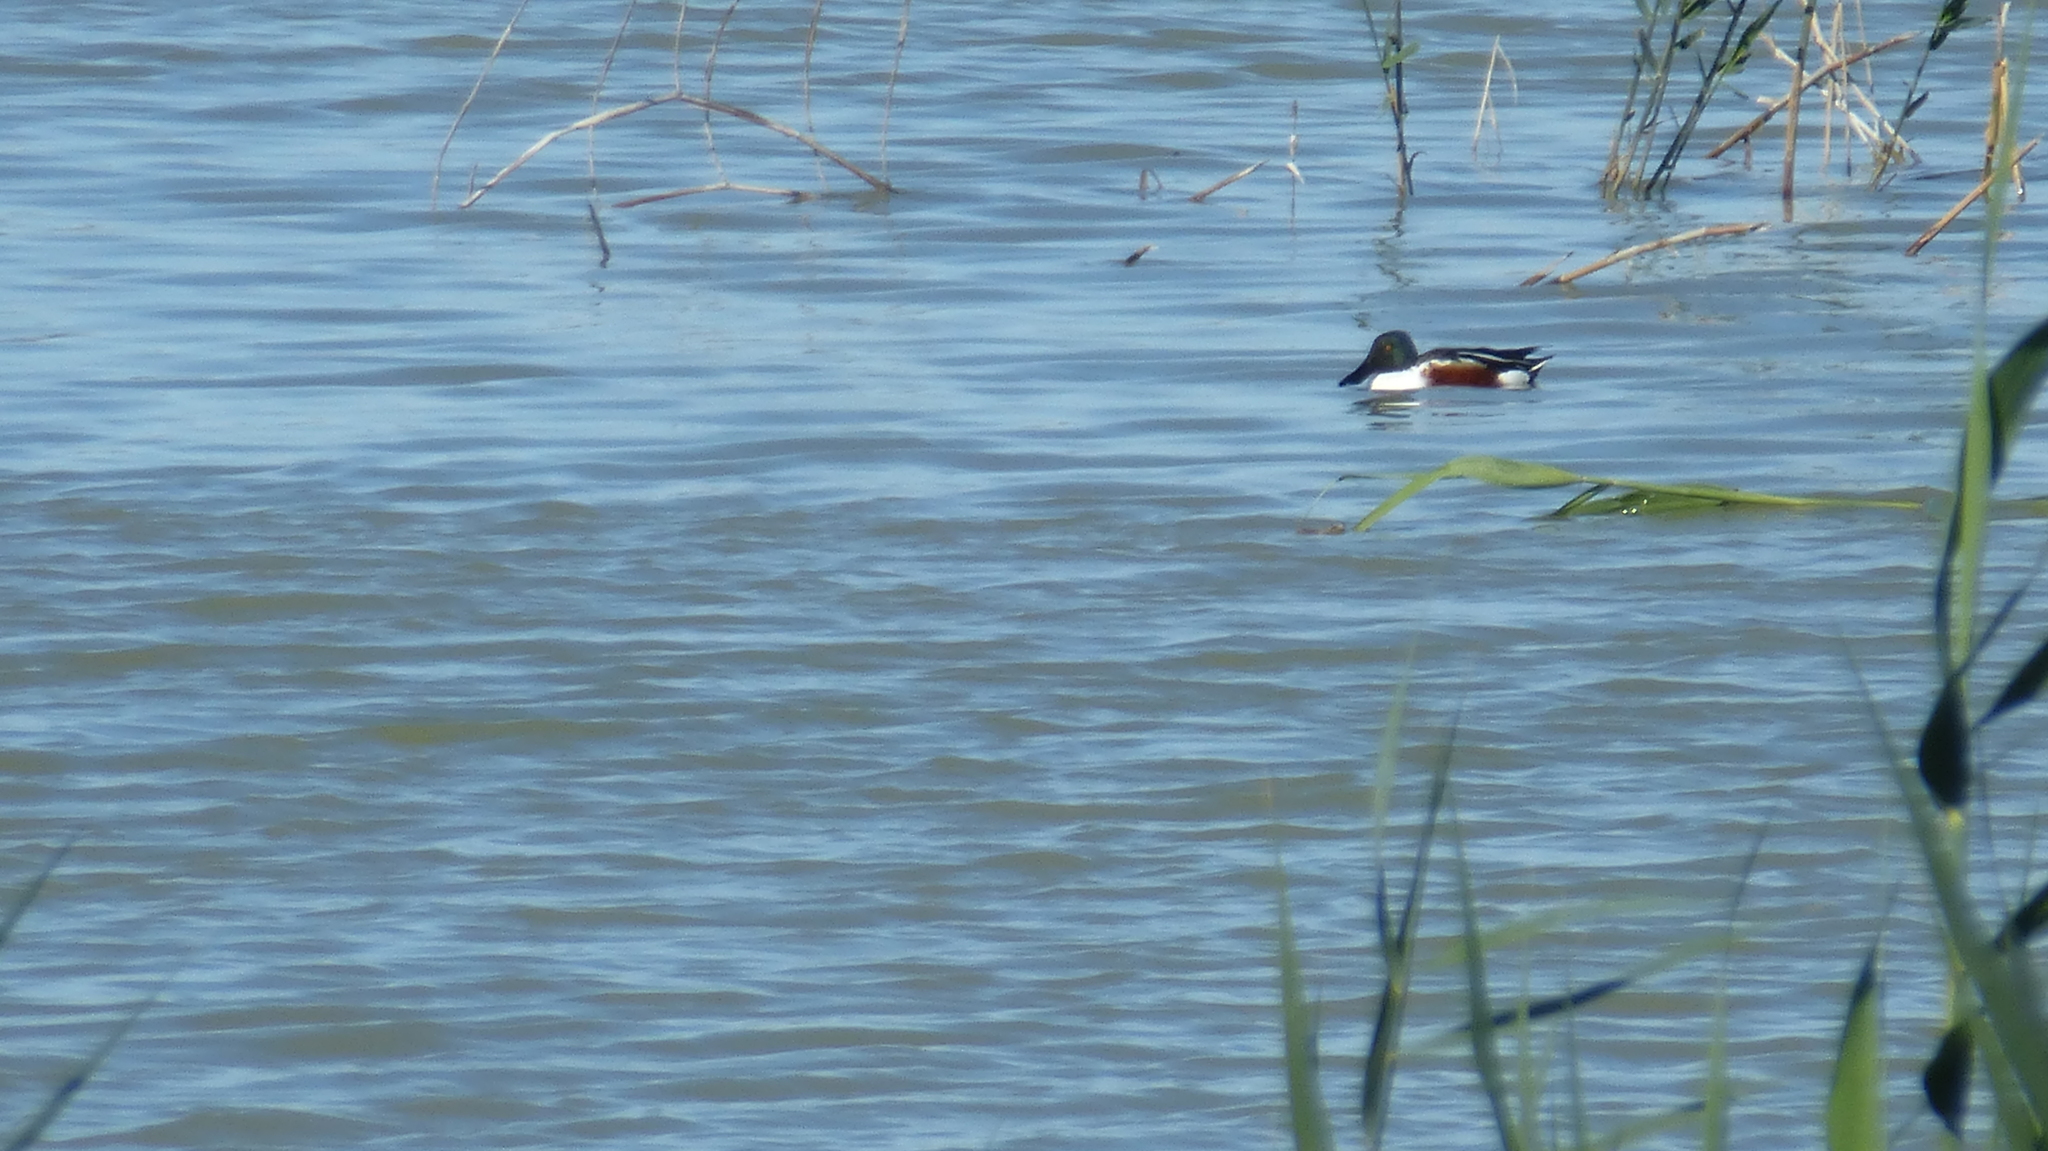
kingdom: Animalia
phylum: Chordata
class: Aves
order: Anseriformes
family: Anatidae
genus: Spatula
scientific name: Spatula clypeata
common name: Northern shoveler
